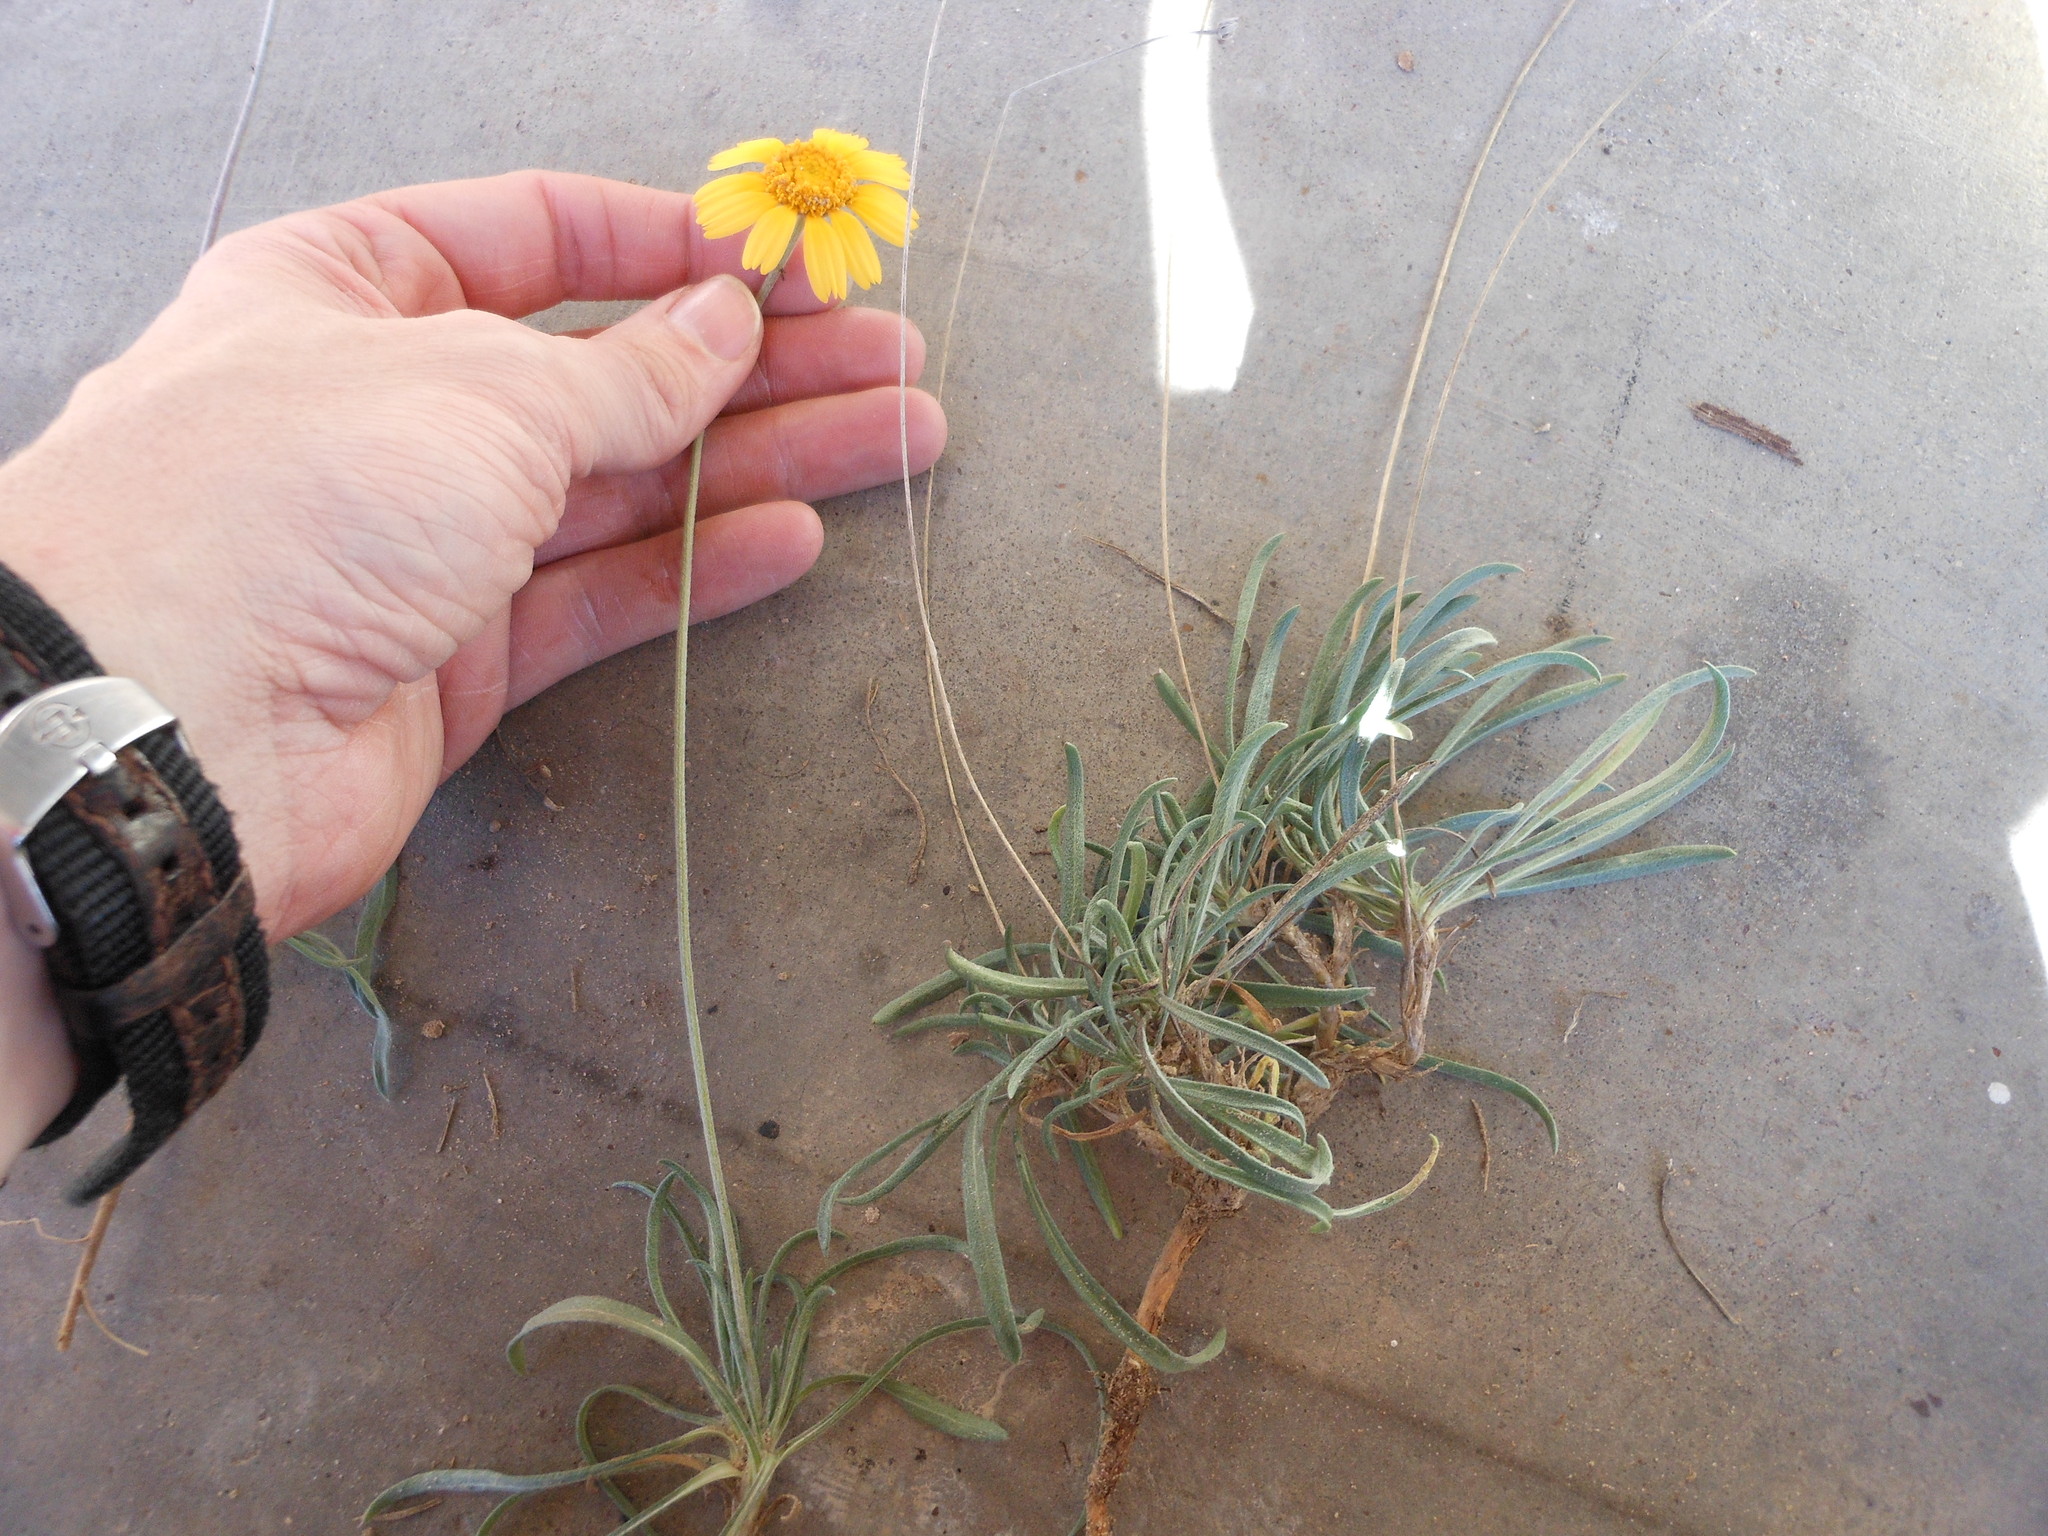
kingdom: Plantae
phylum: Tracheophyta
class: Magnoliopsida
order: Asterales
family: Asteraceae
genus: Tetraneuris
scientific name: Tetraneuris scaposa
